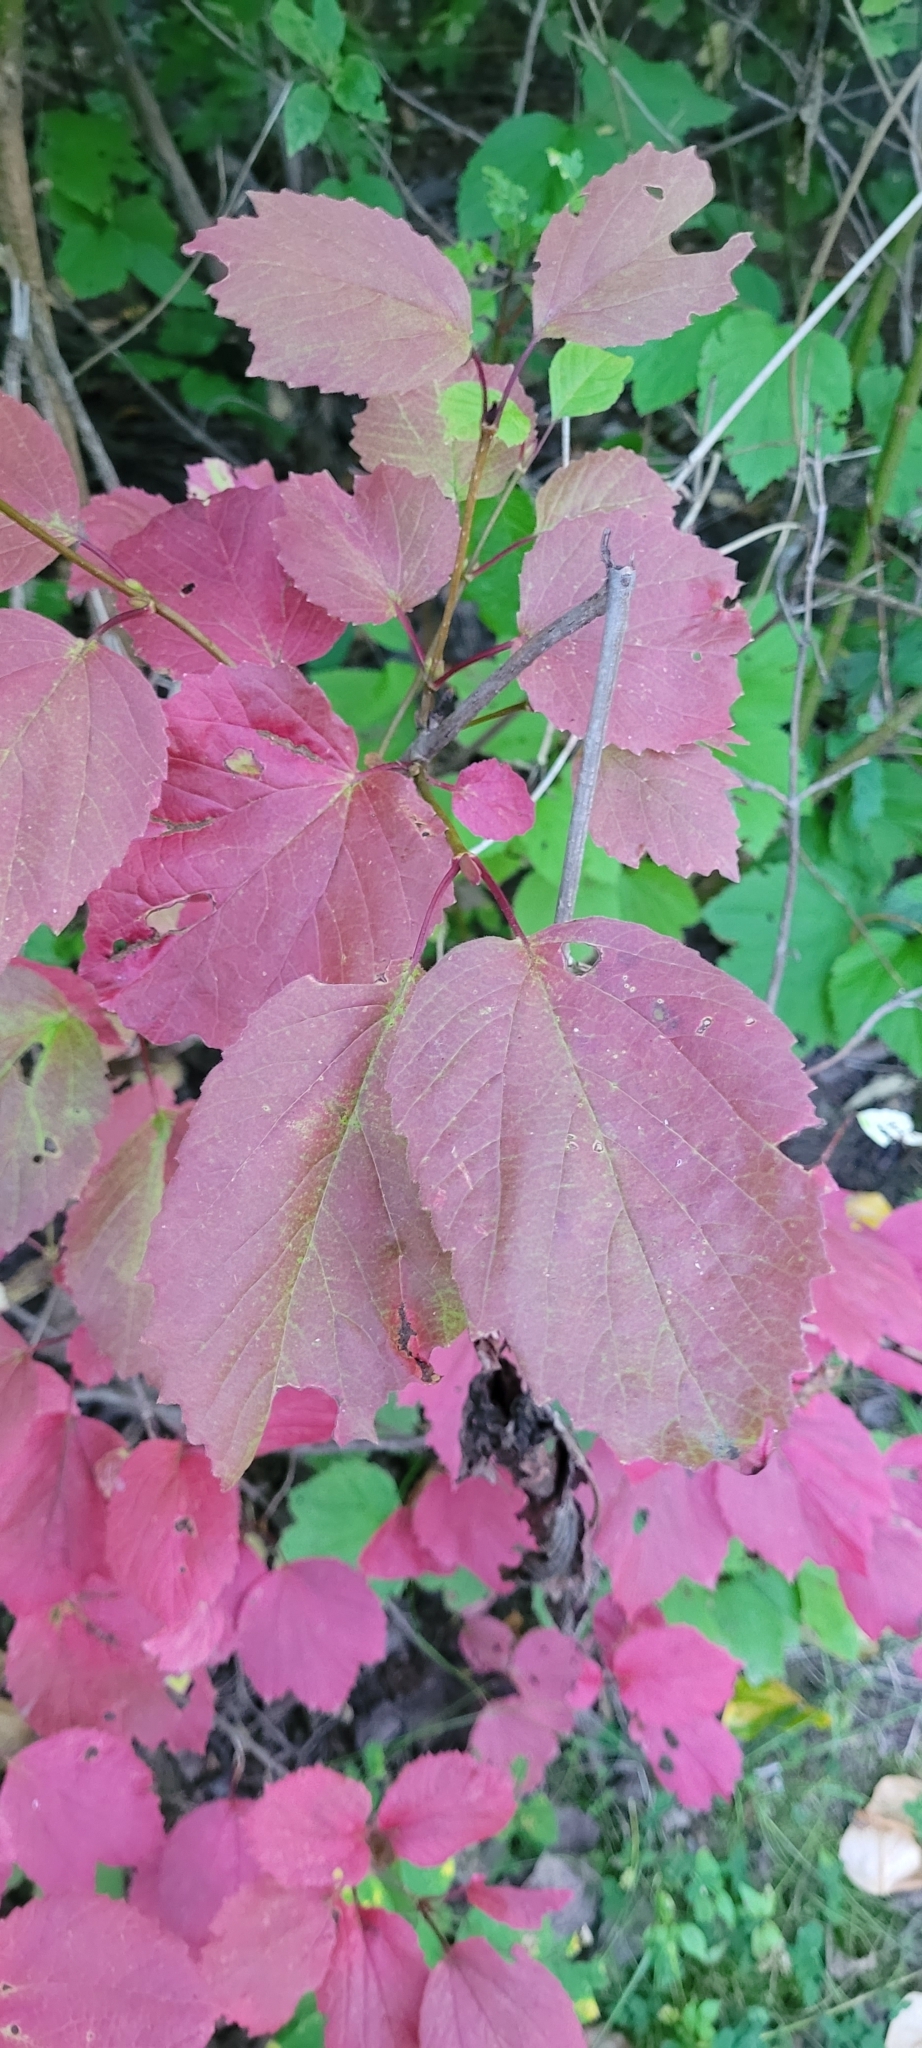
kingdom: Plantae
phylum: Tracheophyta
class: Magnoliopsida
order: Dipsacales
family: Viburnaceae
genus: Viburnum
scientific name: Viburnum edule
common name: Mooseberry
